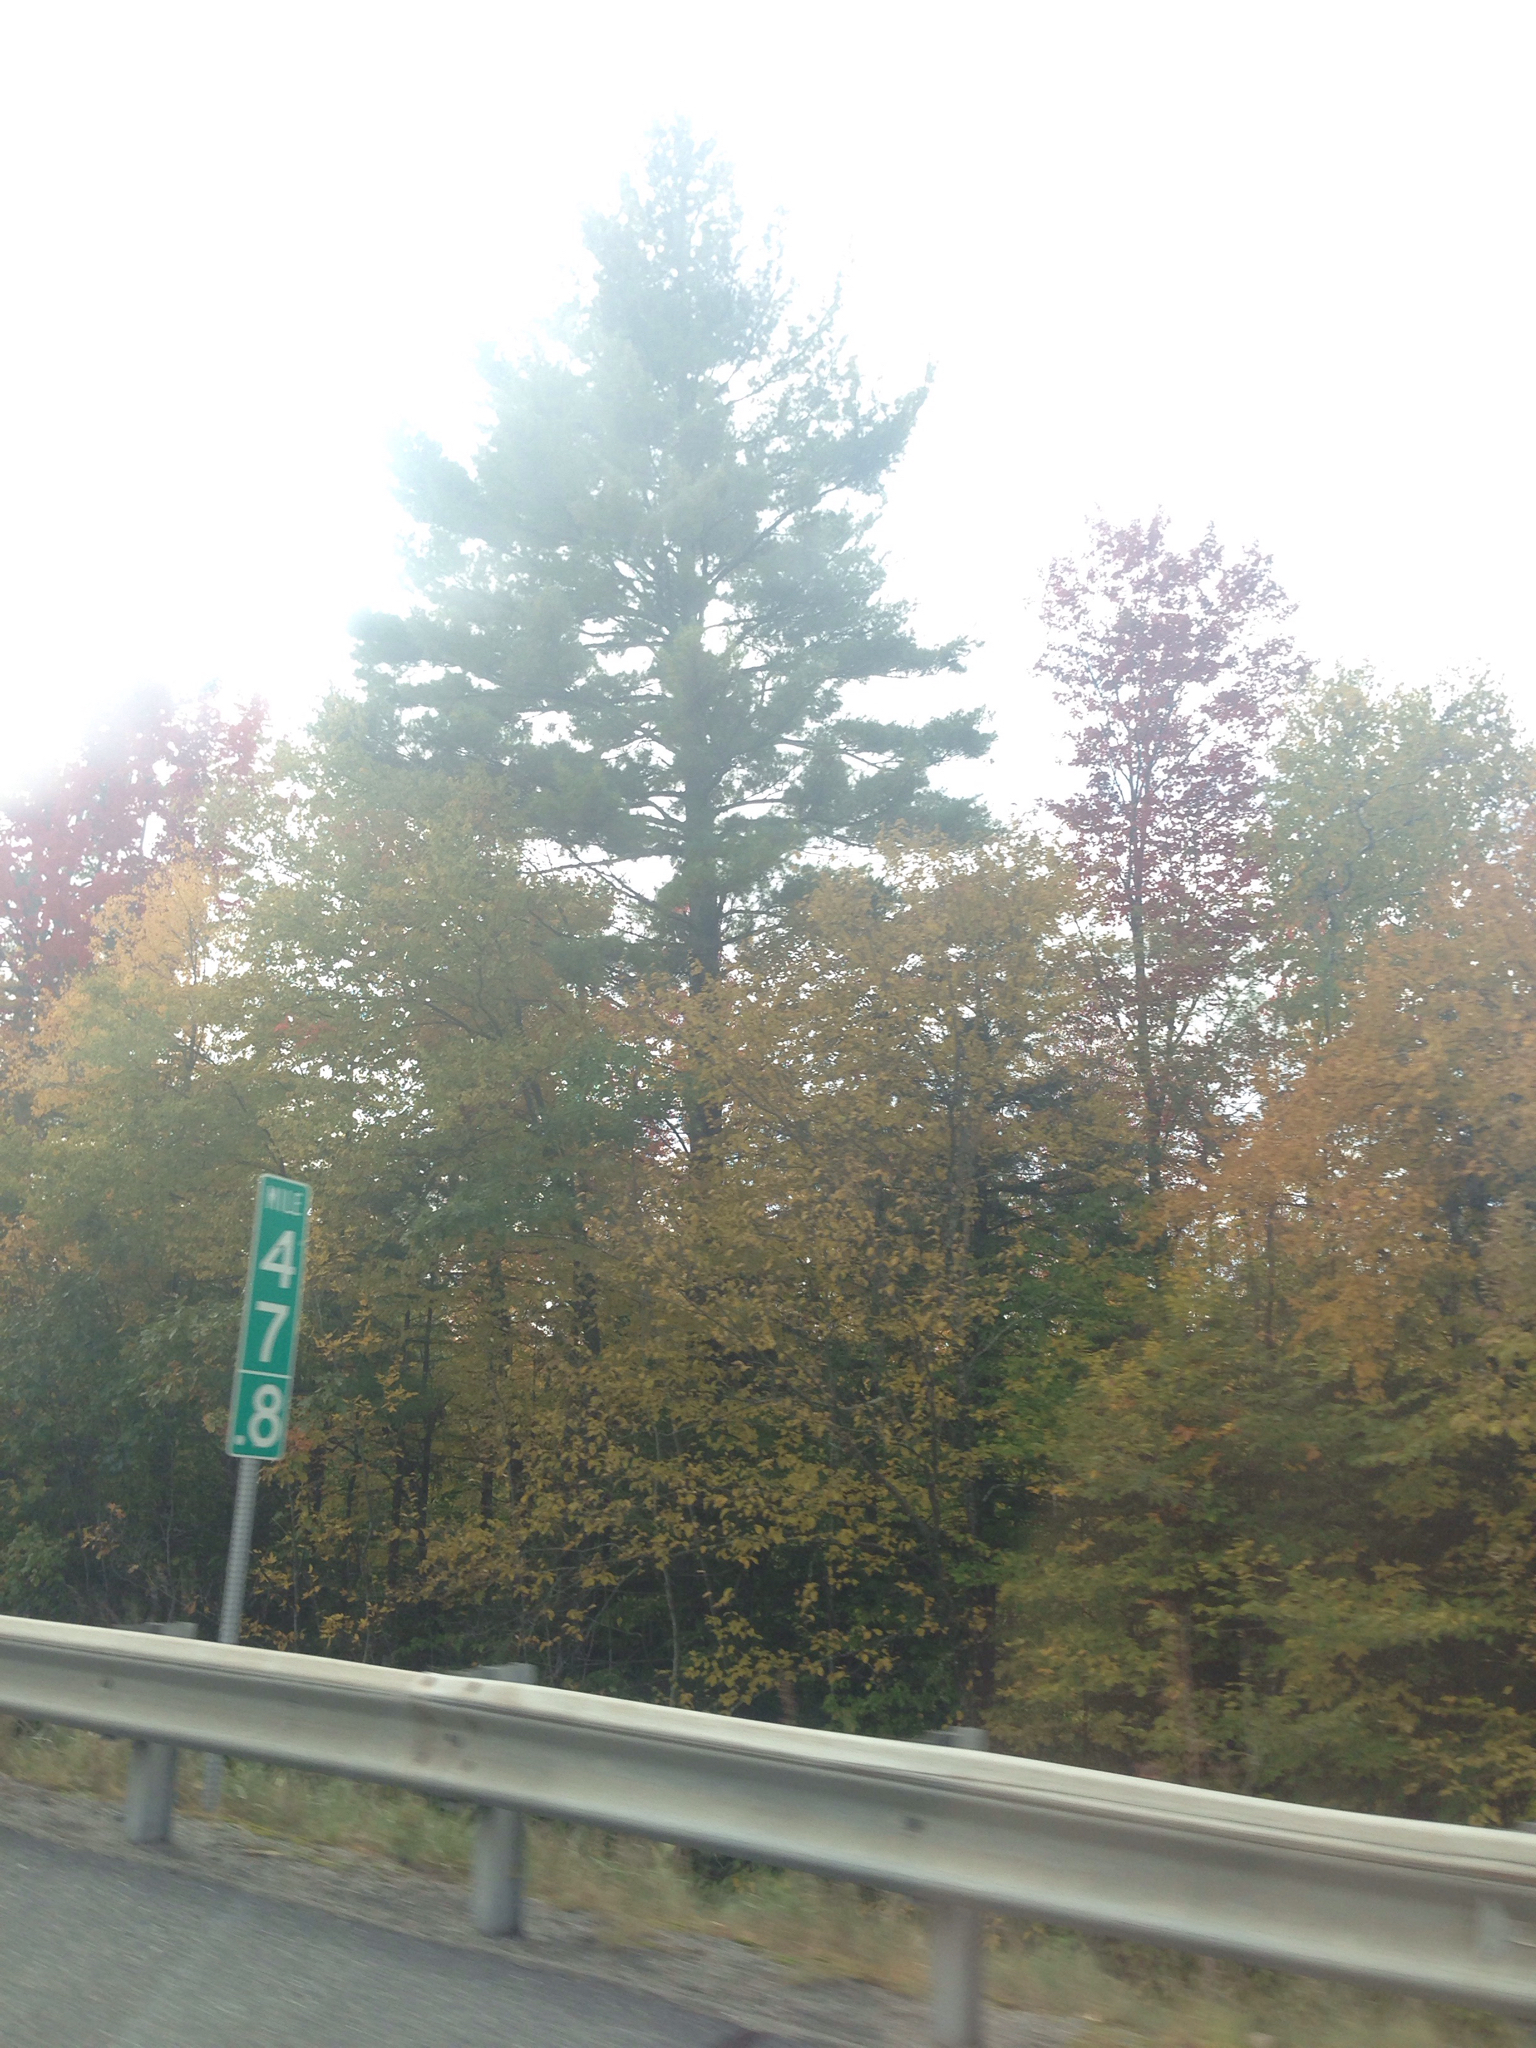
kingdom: Plantae
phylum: Tracheophyta
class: Pinopsida
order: Pinales
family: Pinaceae
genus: Pinus
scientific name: Pinus strobus
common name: Weymouth pine
